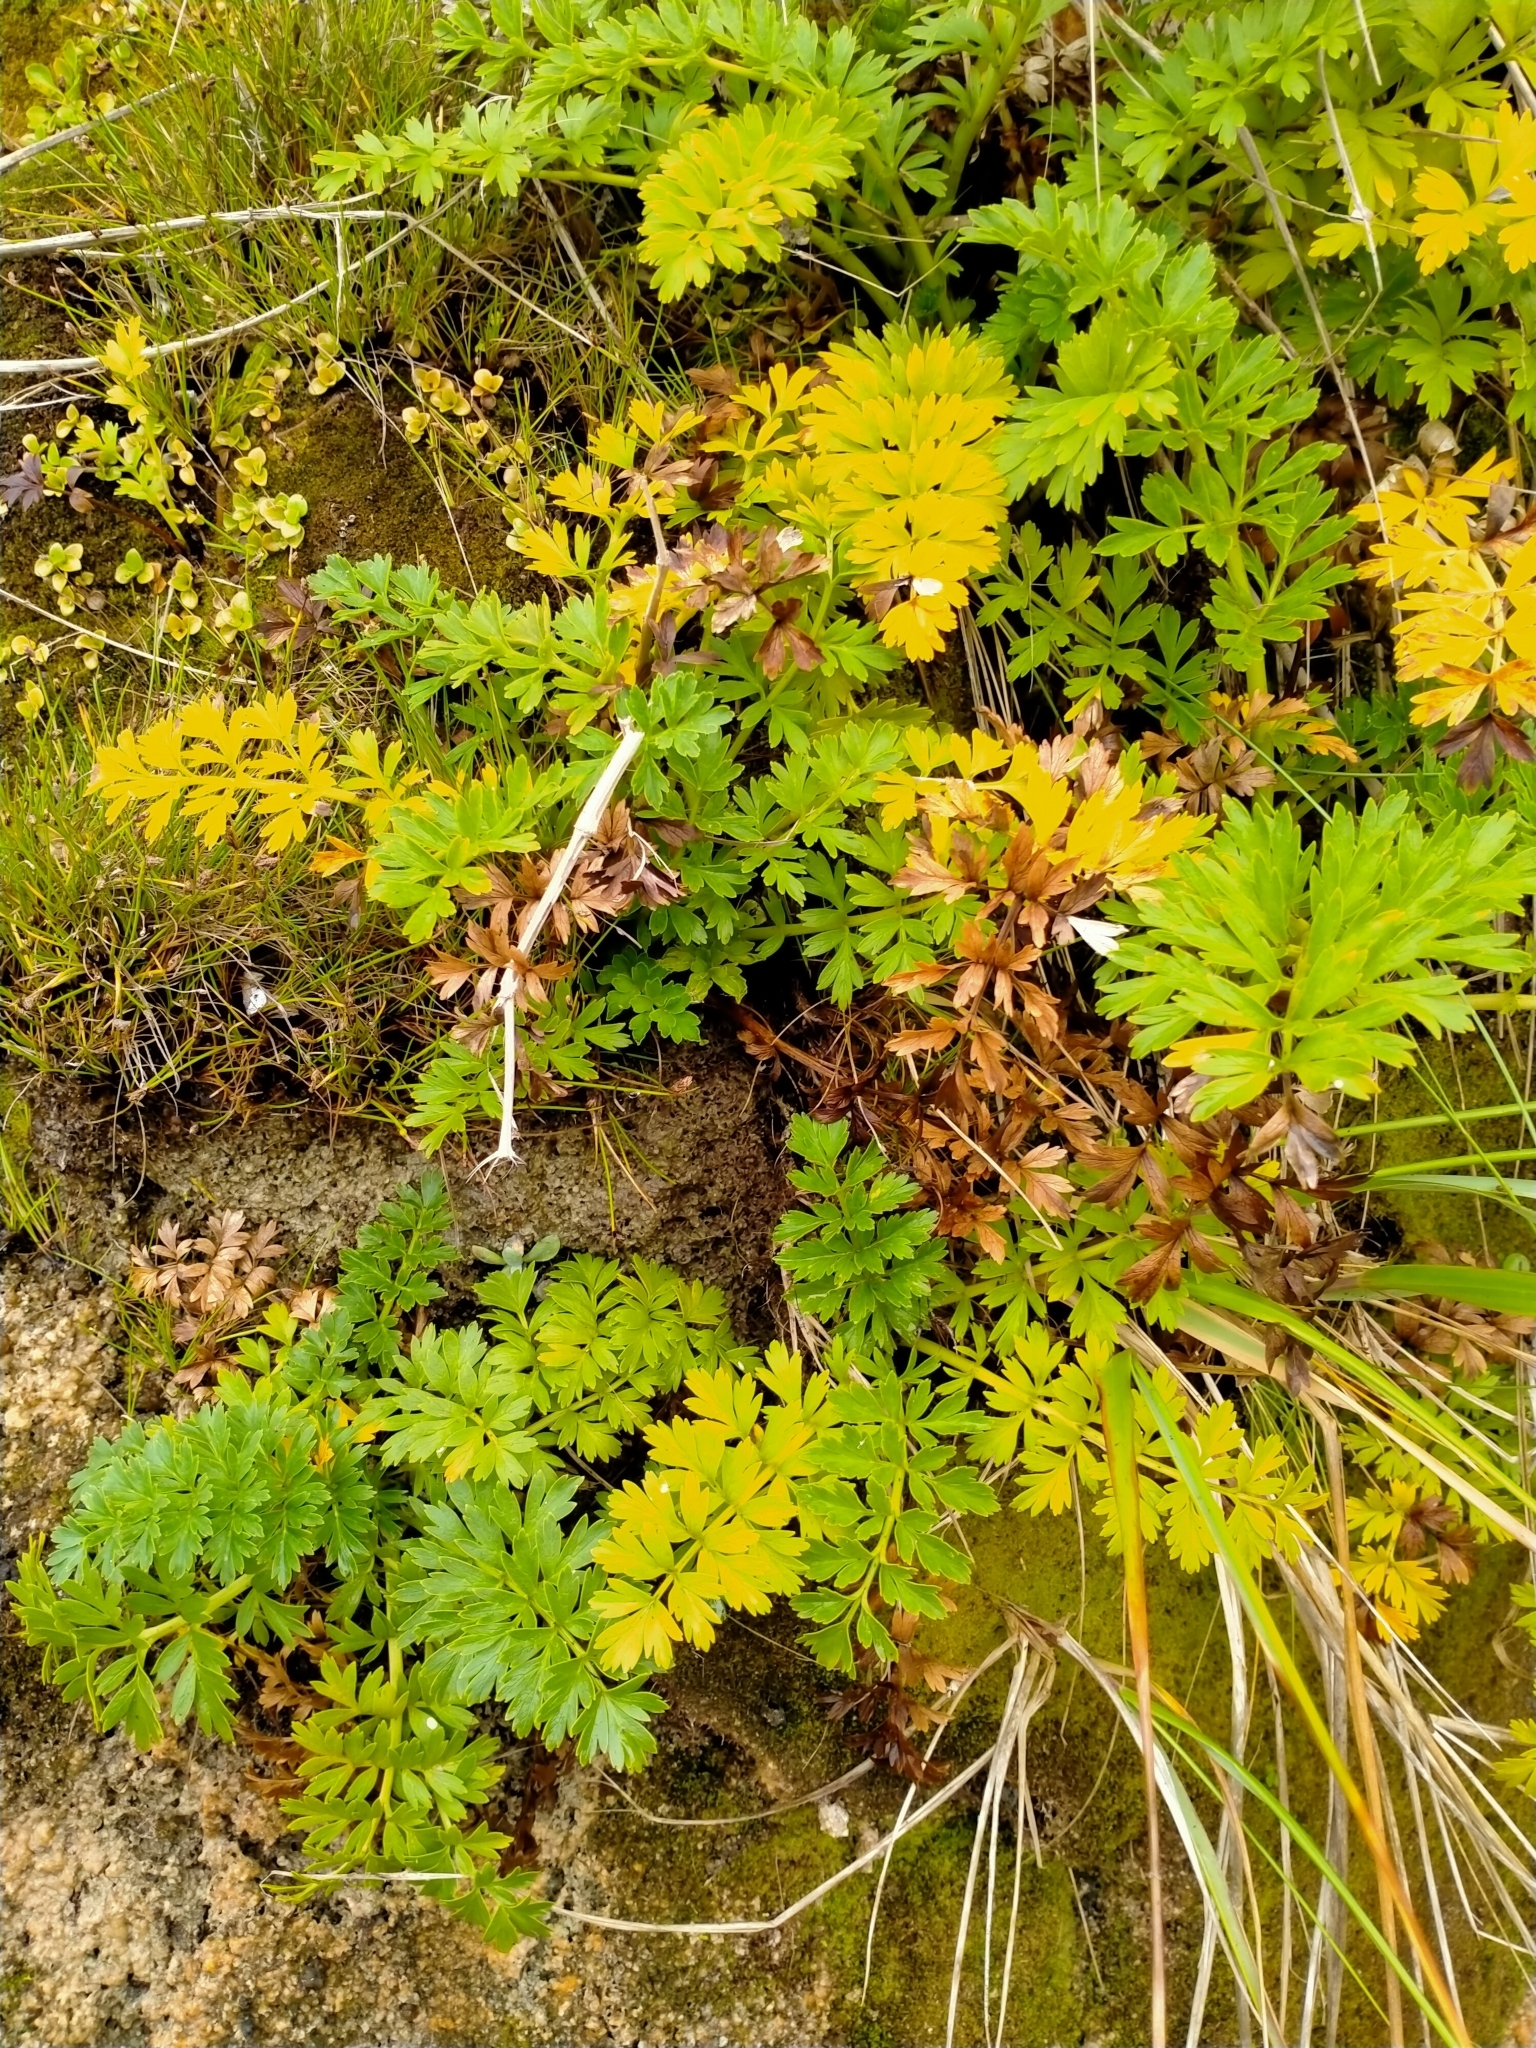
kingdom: Plantae
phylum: Tracheophyta
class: Magnoliopsida
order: Apiales
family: Apiaceae
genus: Anisotome
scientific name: Anisotome lyallii
